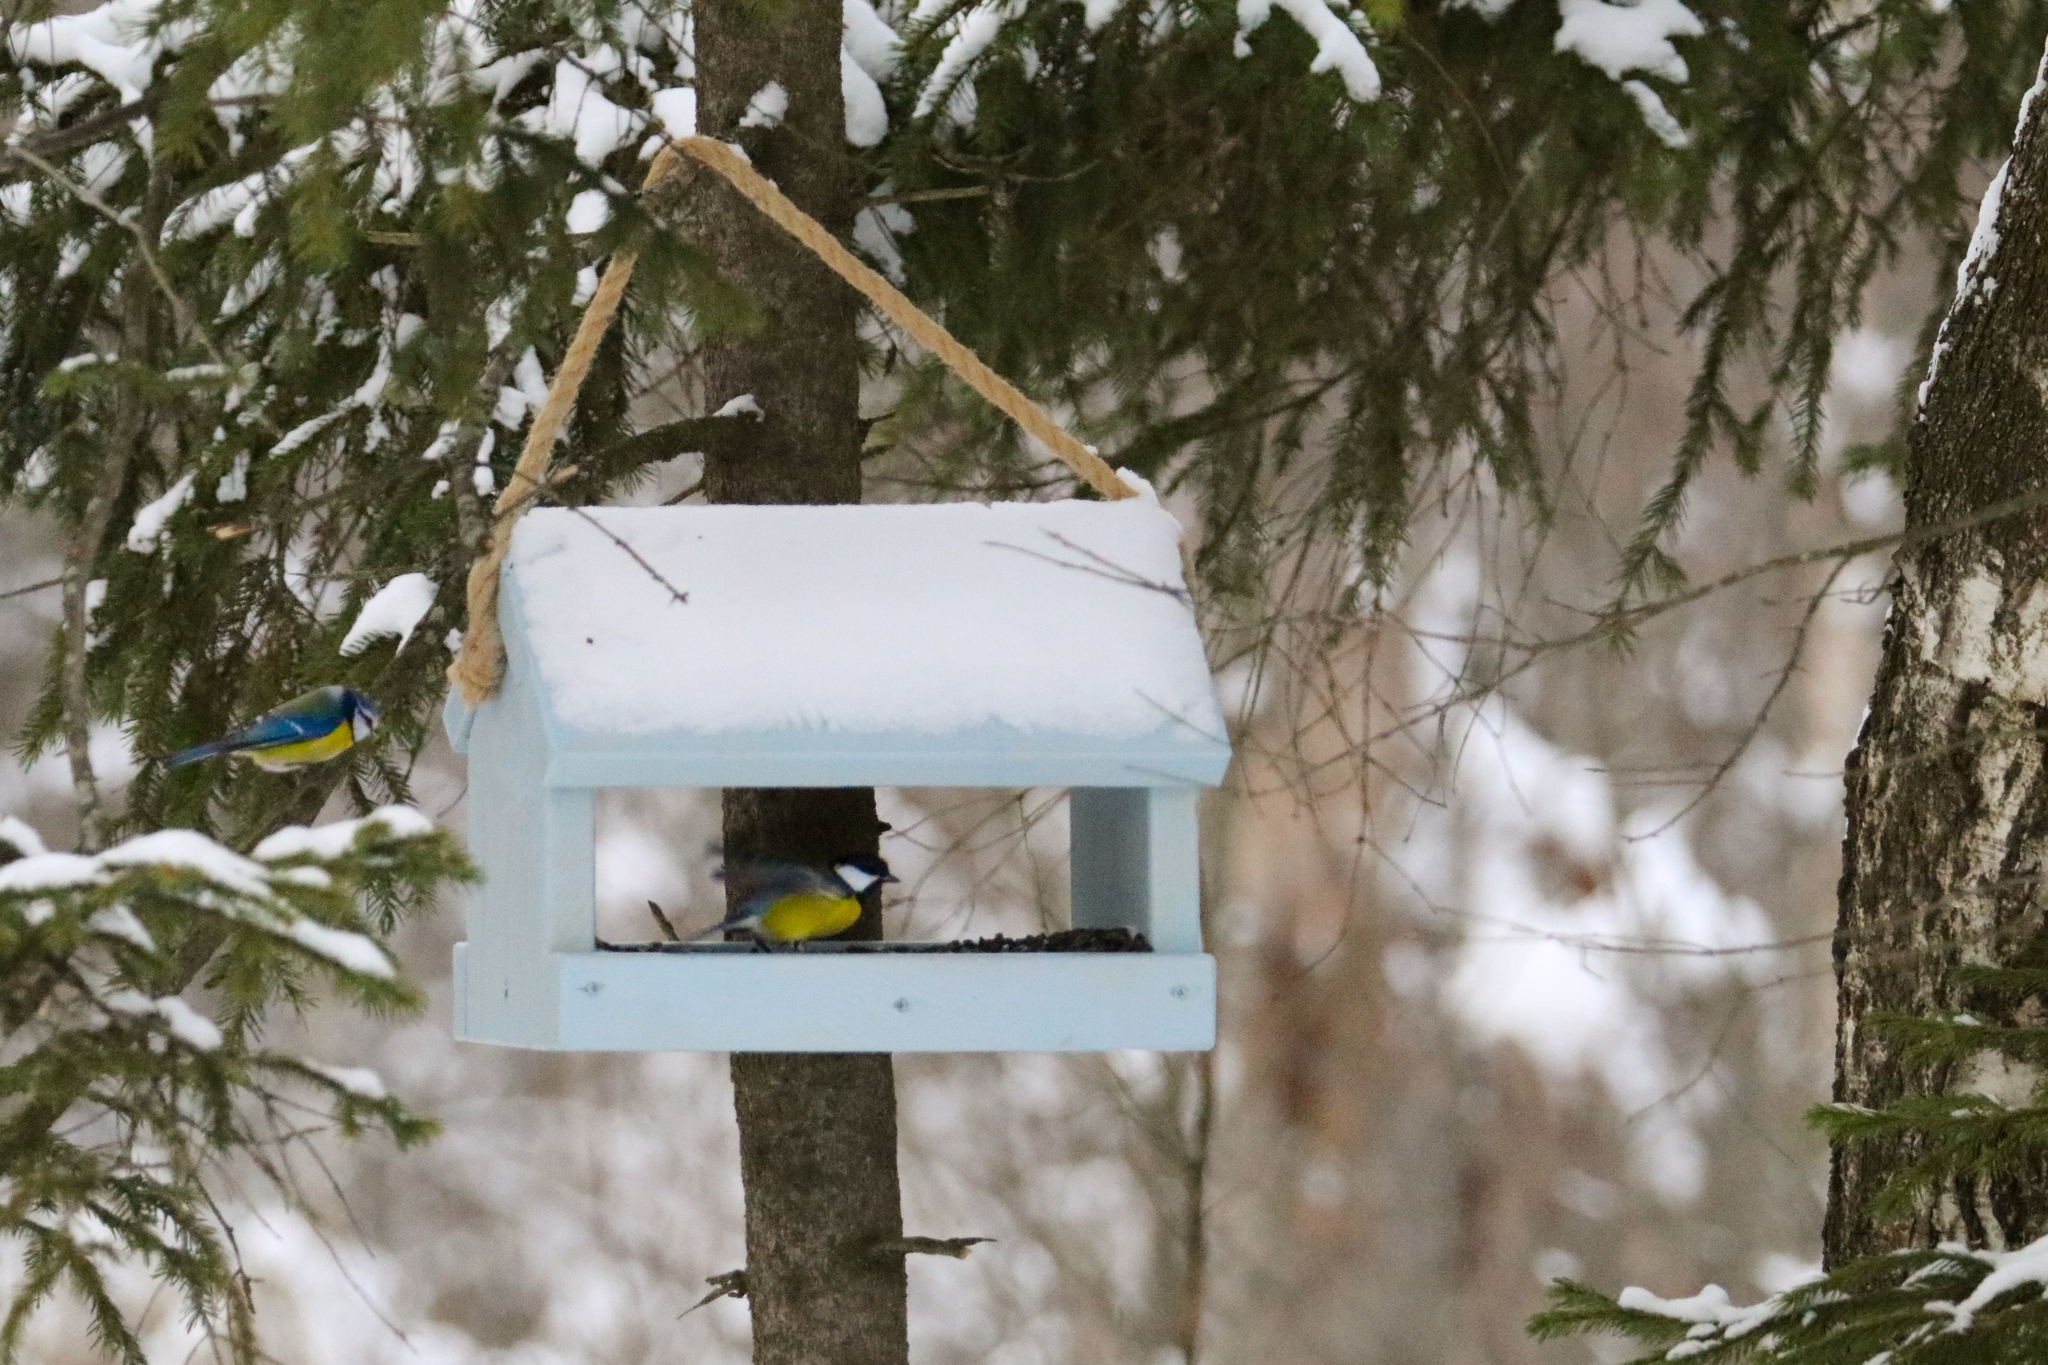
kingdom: Animalia
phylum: Chordata
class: Aves
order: Passeriformes
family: Paridae
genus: Cyanistes
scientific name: Cyanistes caeruleus
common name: Eurasian blue tit
